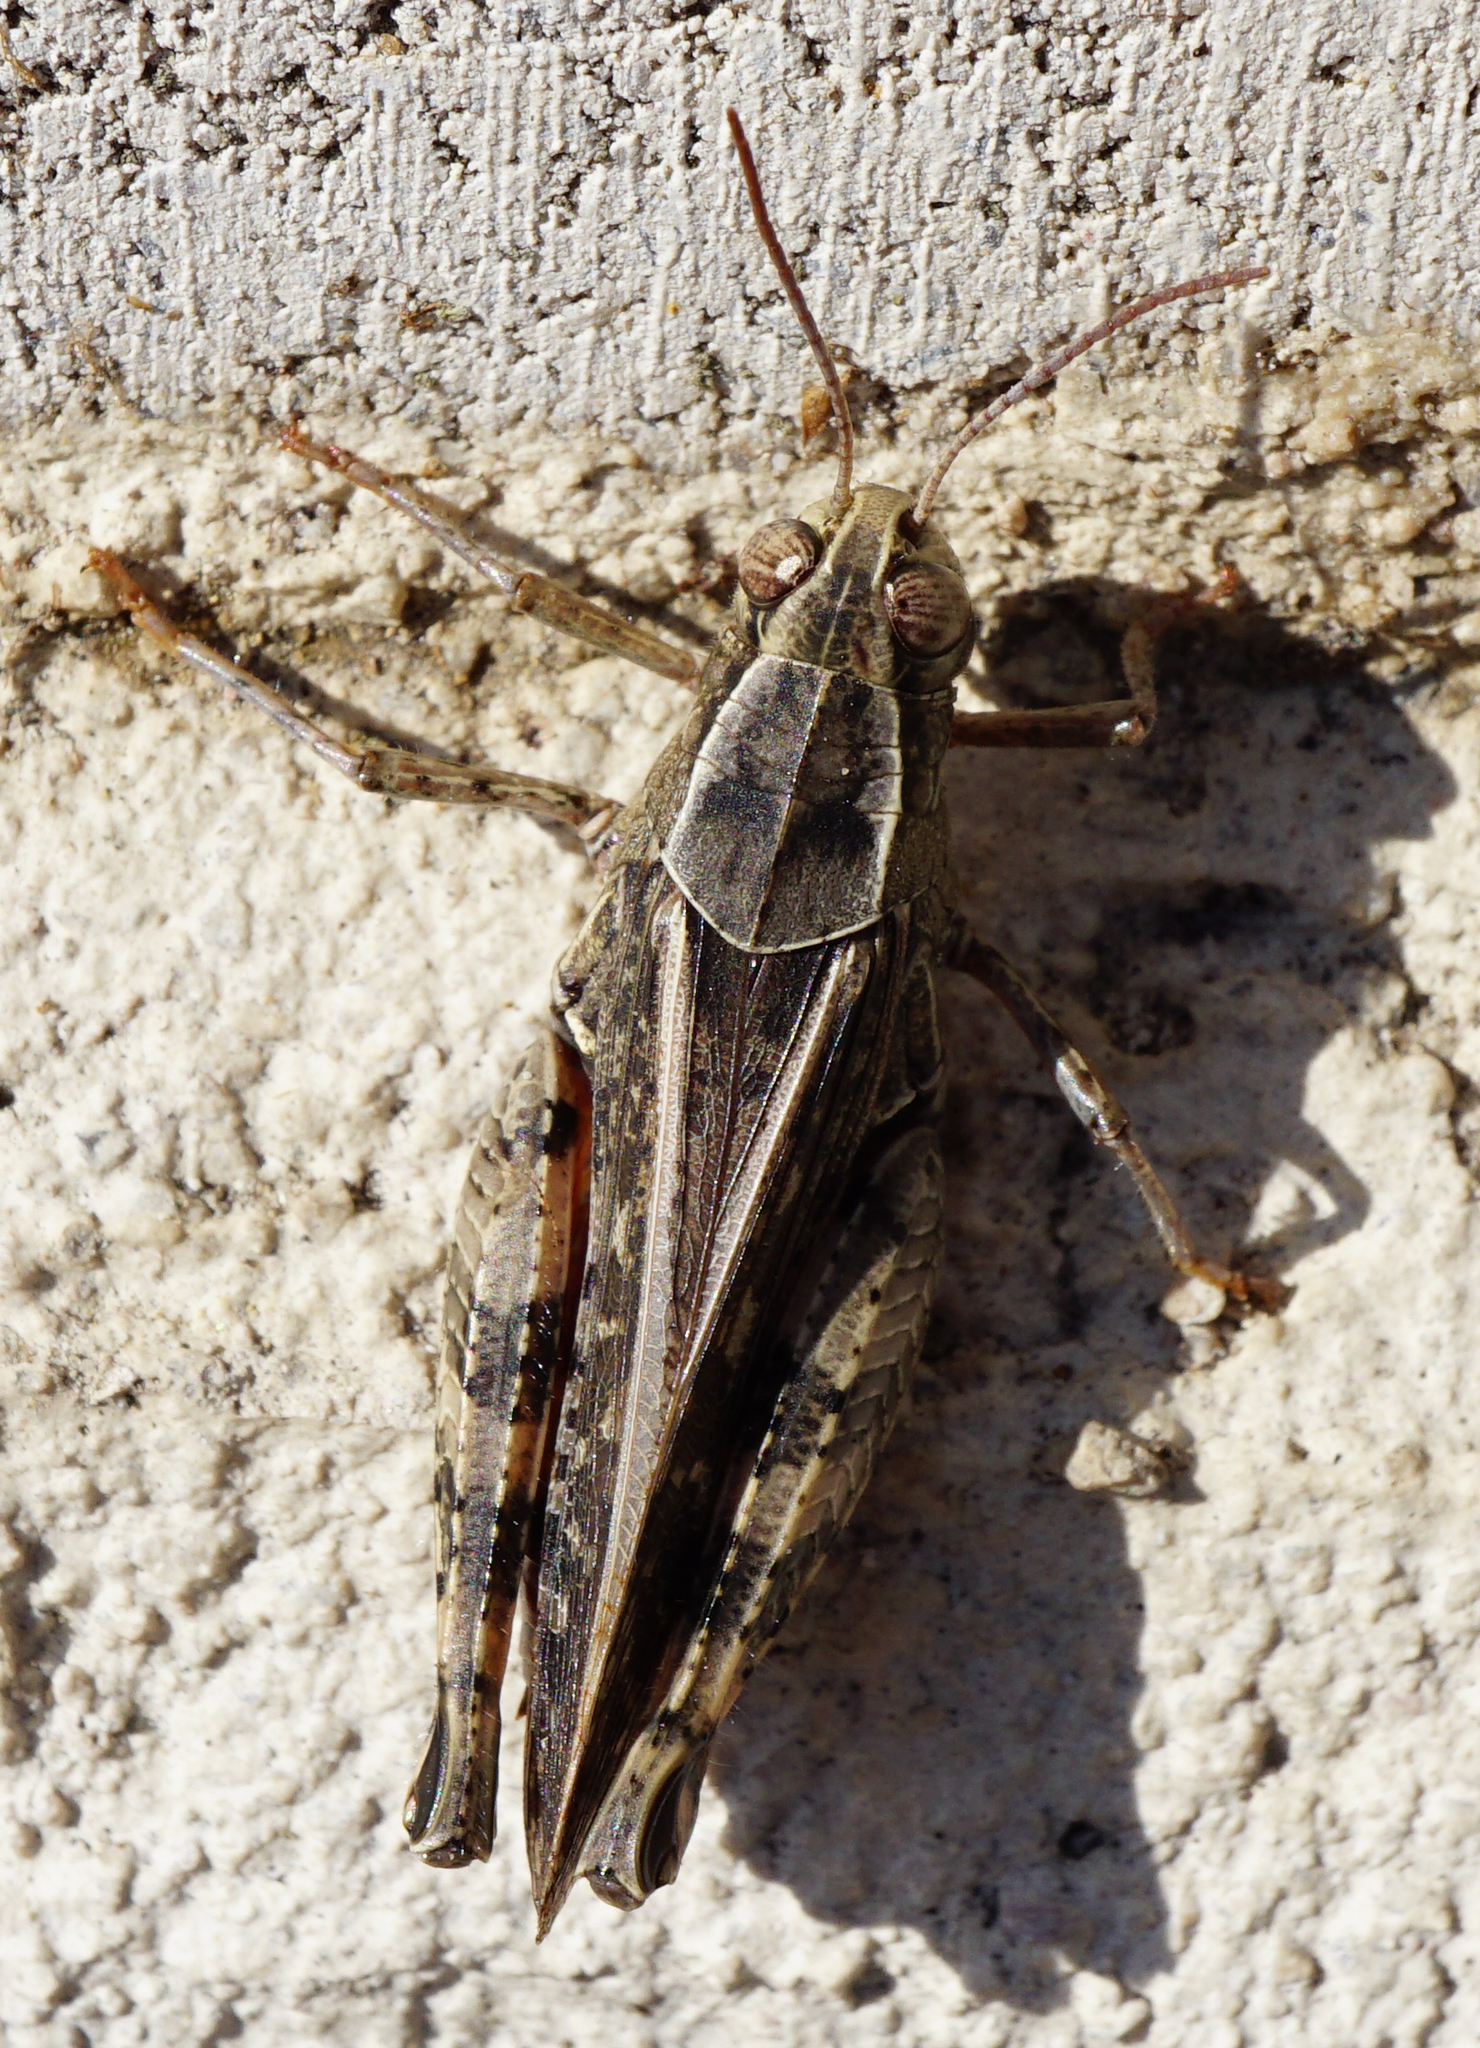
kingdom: Animalia
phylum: Arthropoda
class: Insecta
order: Orthoptera
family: Acrididae
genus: Calliptamus
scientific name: Calliptamus italicus
